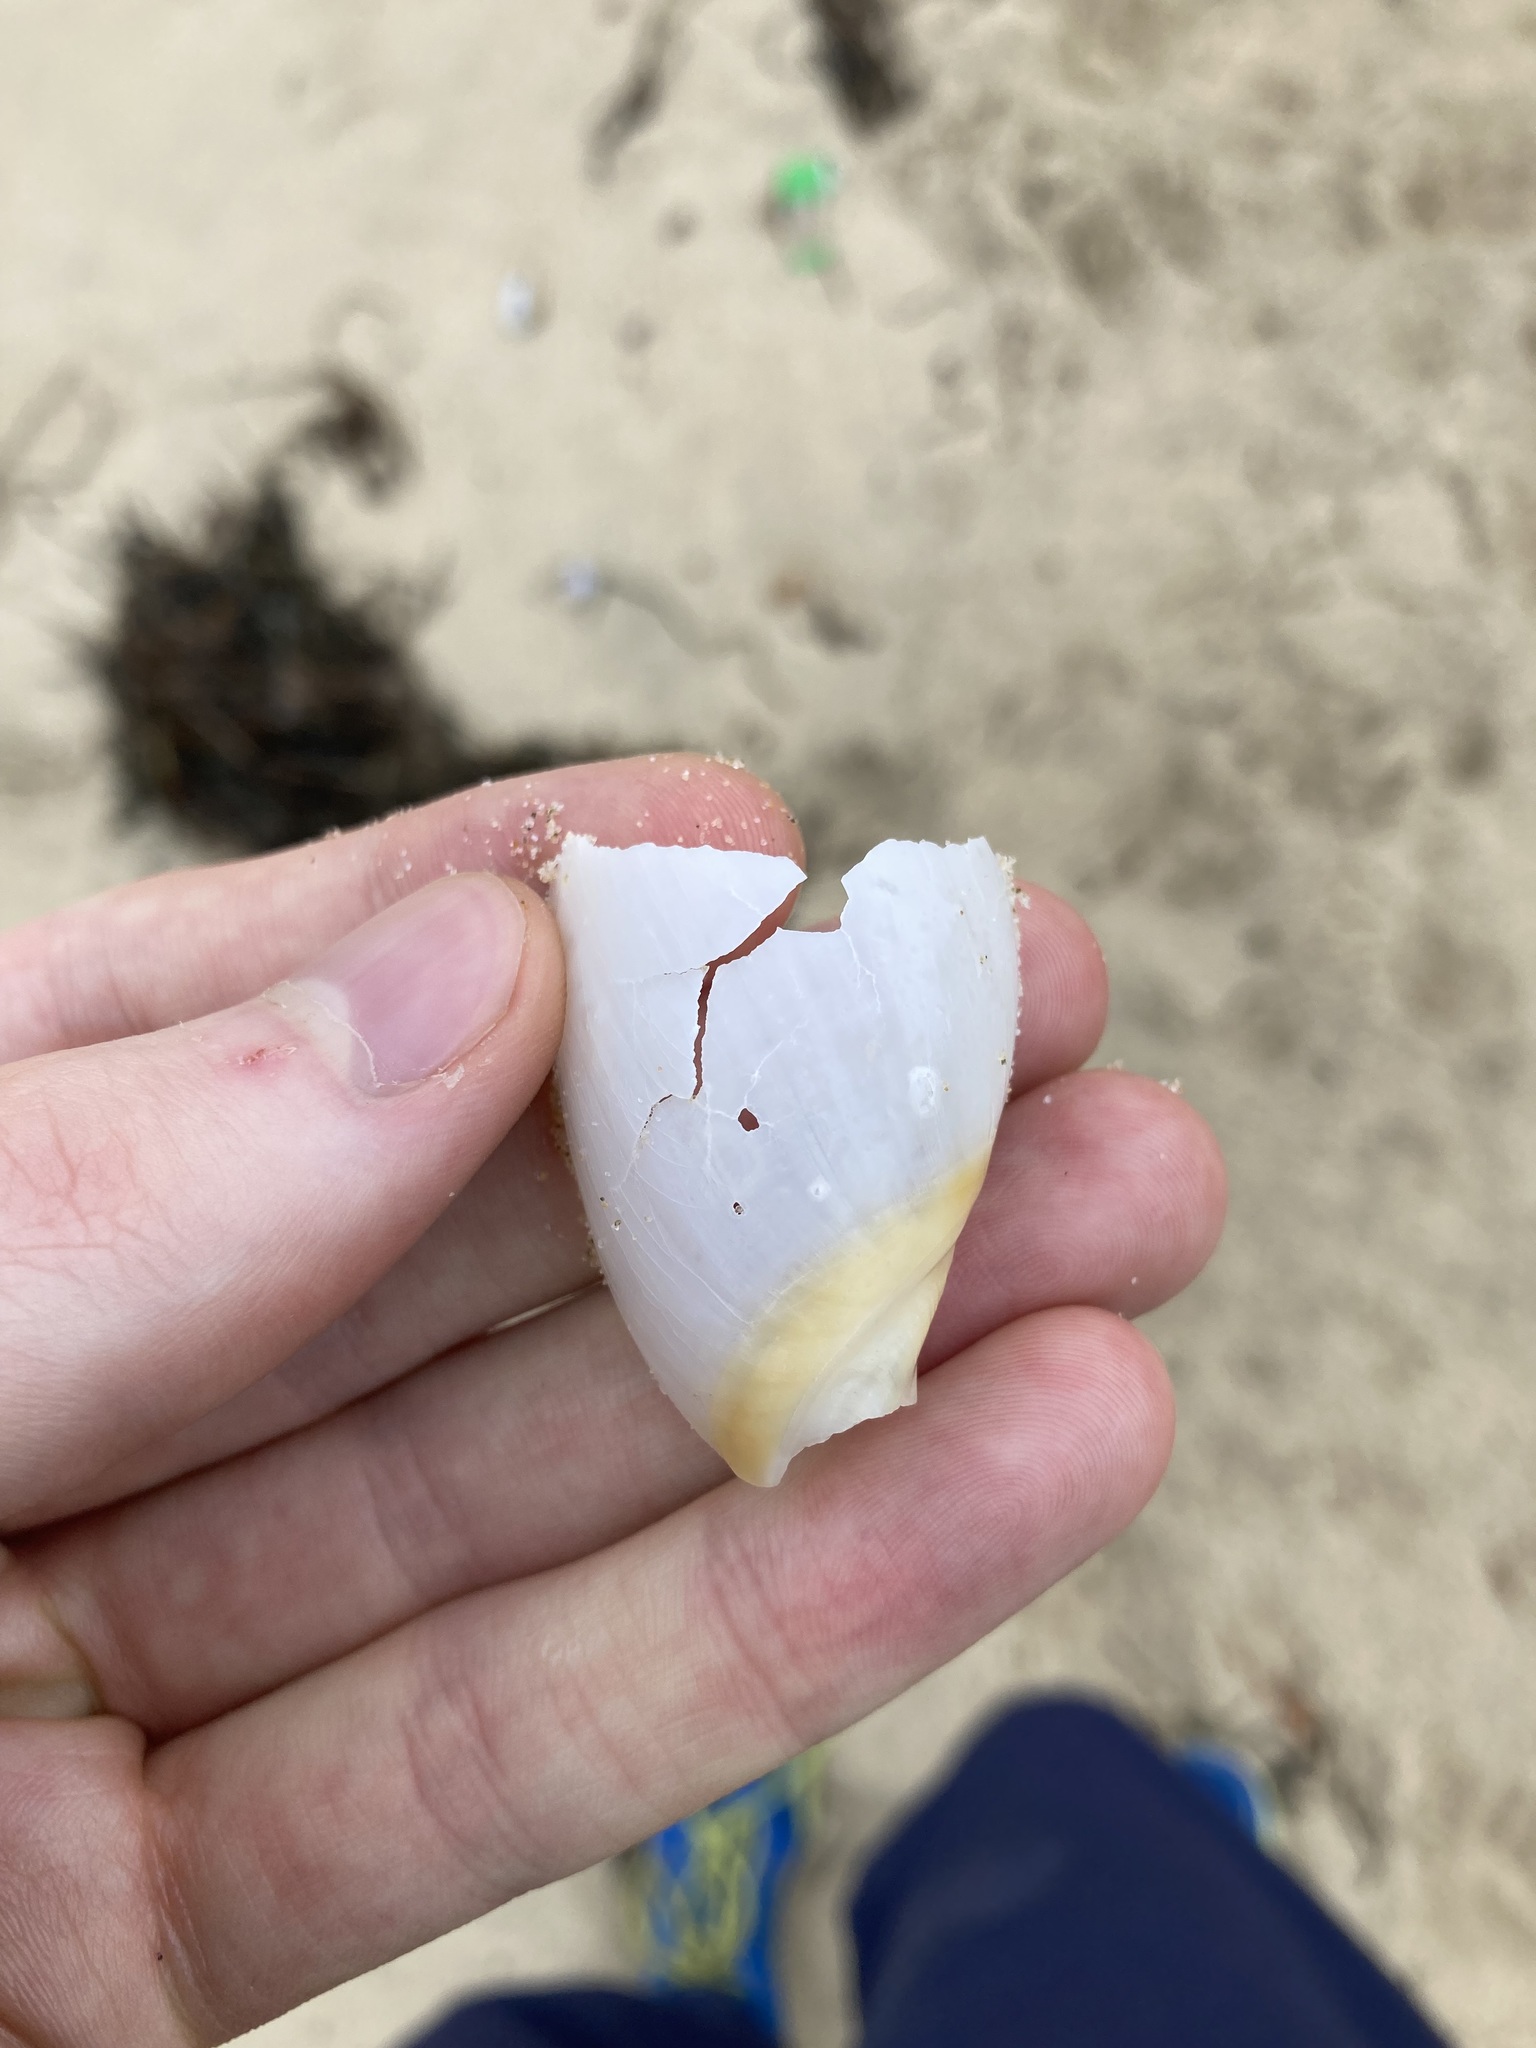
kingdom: Animalia
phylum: Mollusca
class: Gastropoda
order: Neogastropoda
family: Ancillariidae
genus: Ancillista
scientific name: Ancillista velesiana
